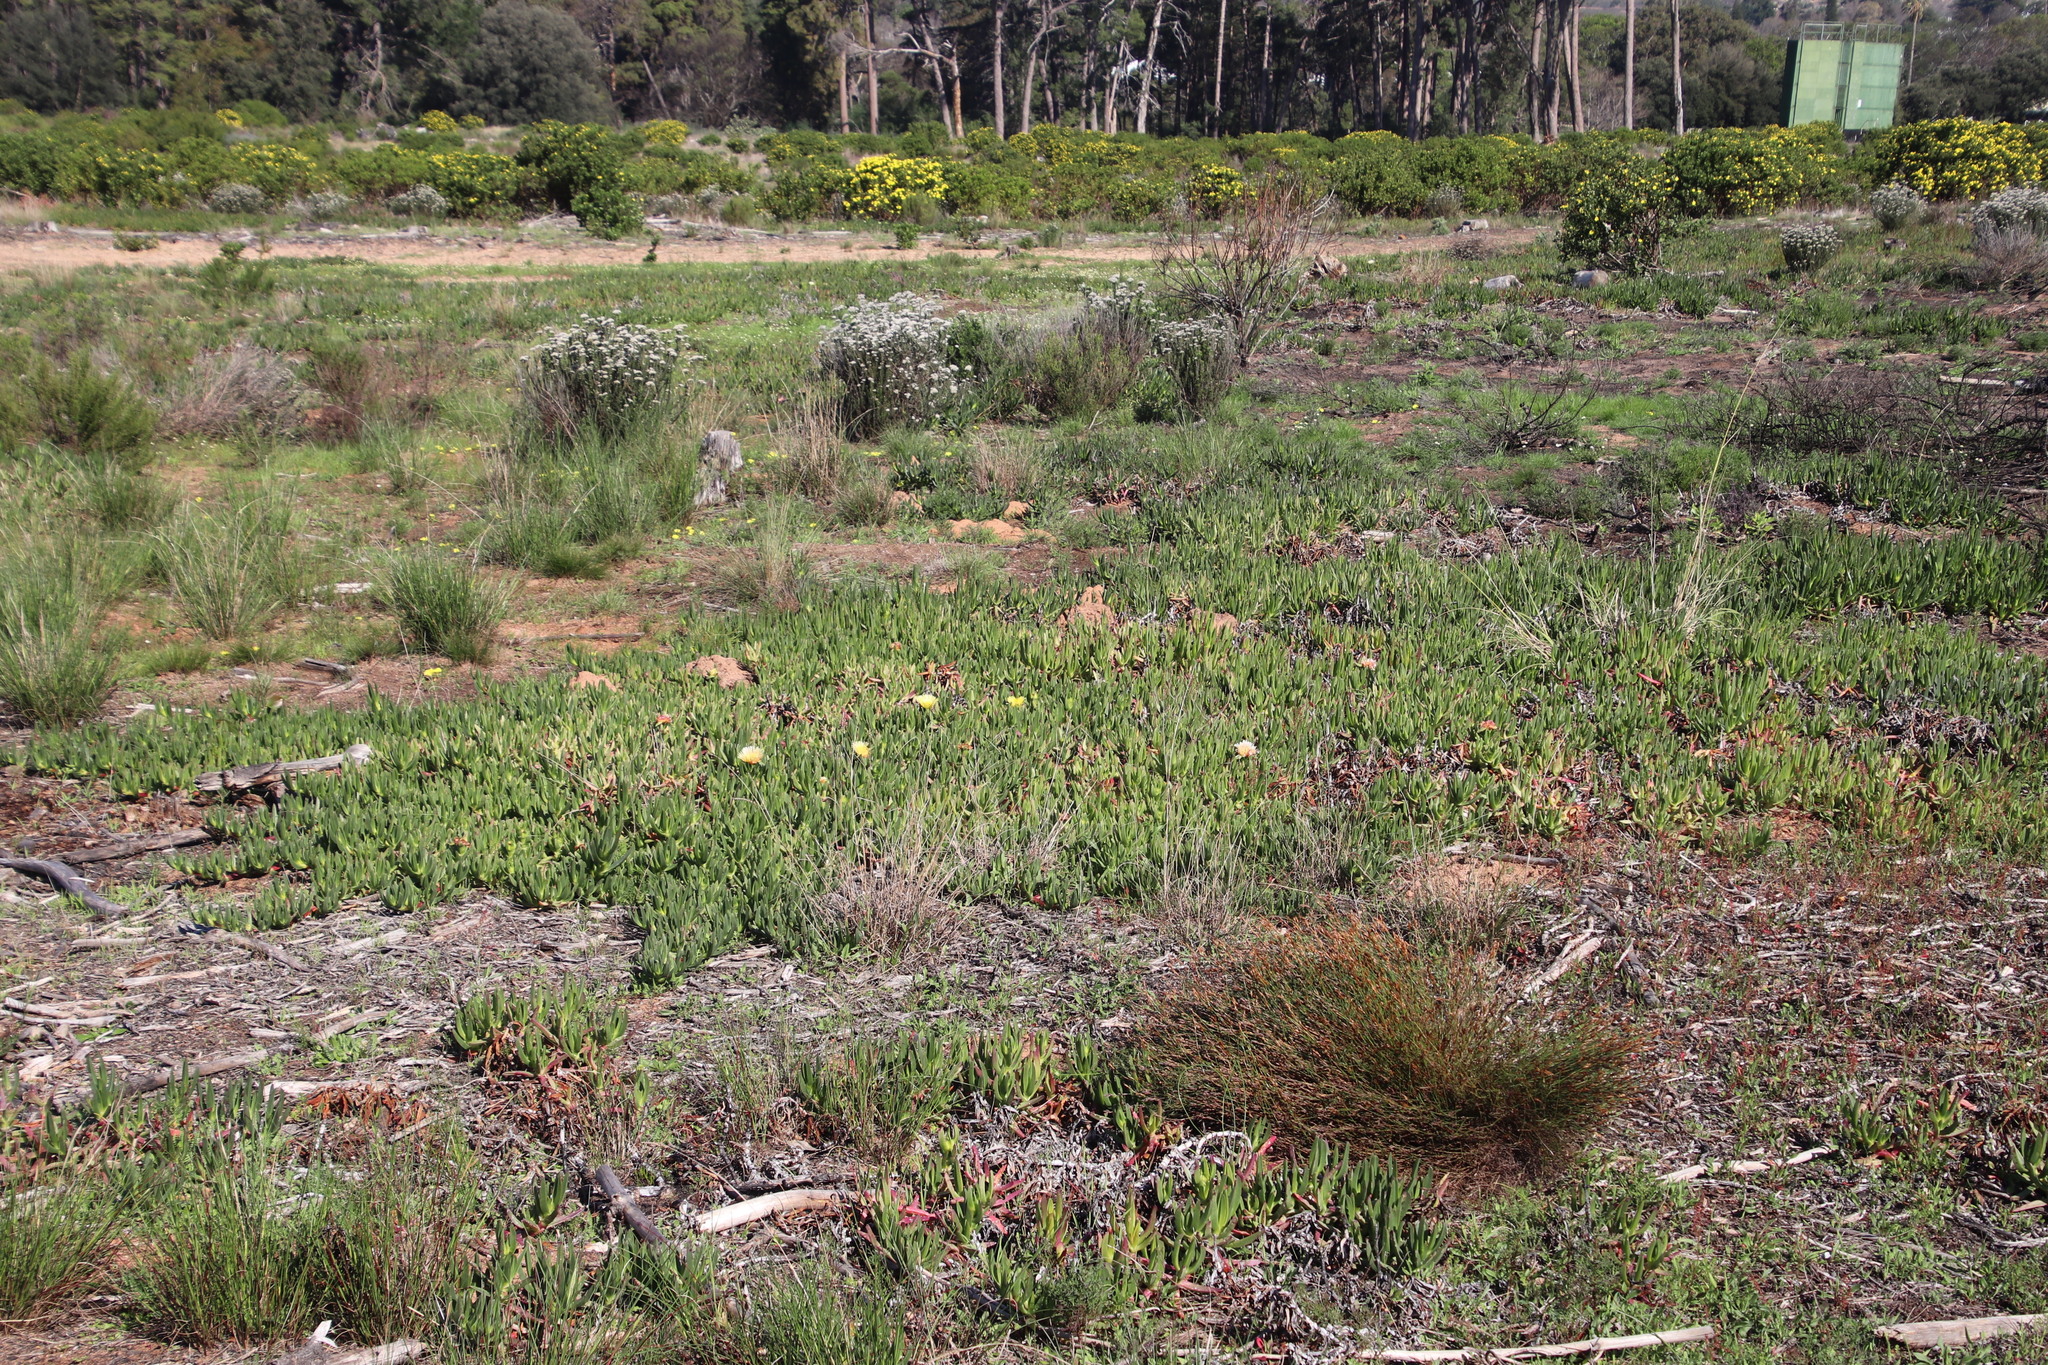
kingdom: Plantae
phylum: Tracheophyta
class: Magnoliopsida
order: Caryophyllales
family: Aizoaceae
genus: Carpobrotus
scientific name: Carpobrotus edulis
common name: Hottentot-fig
